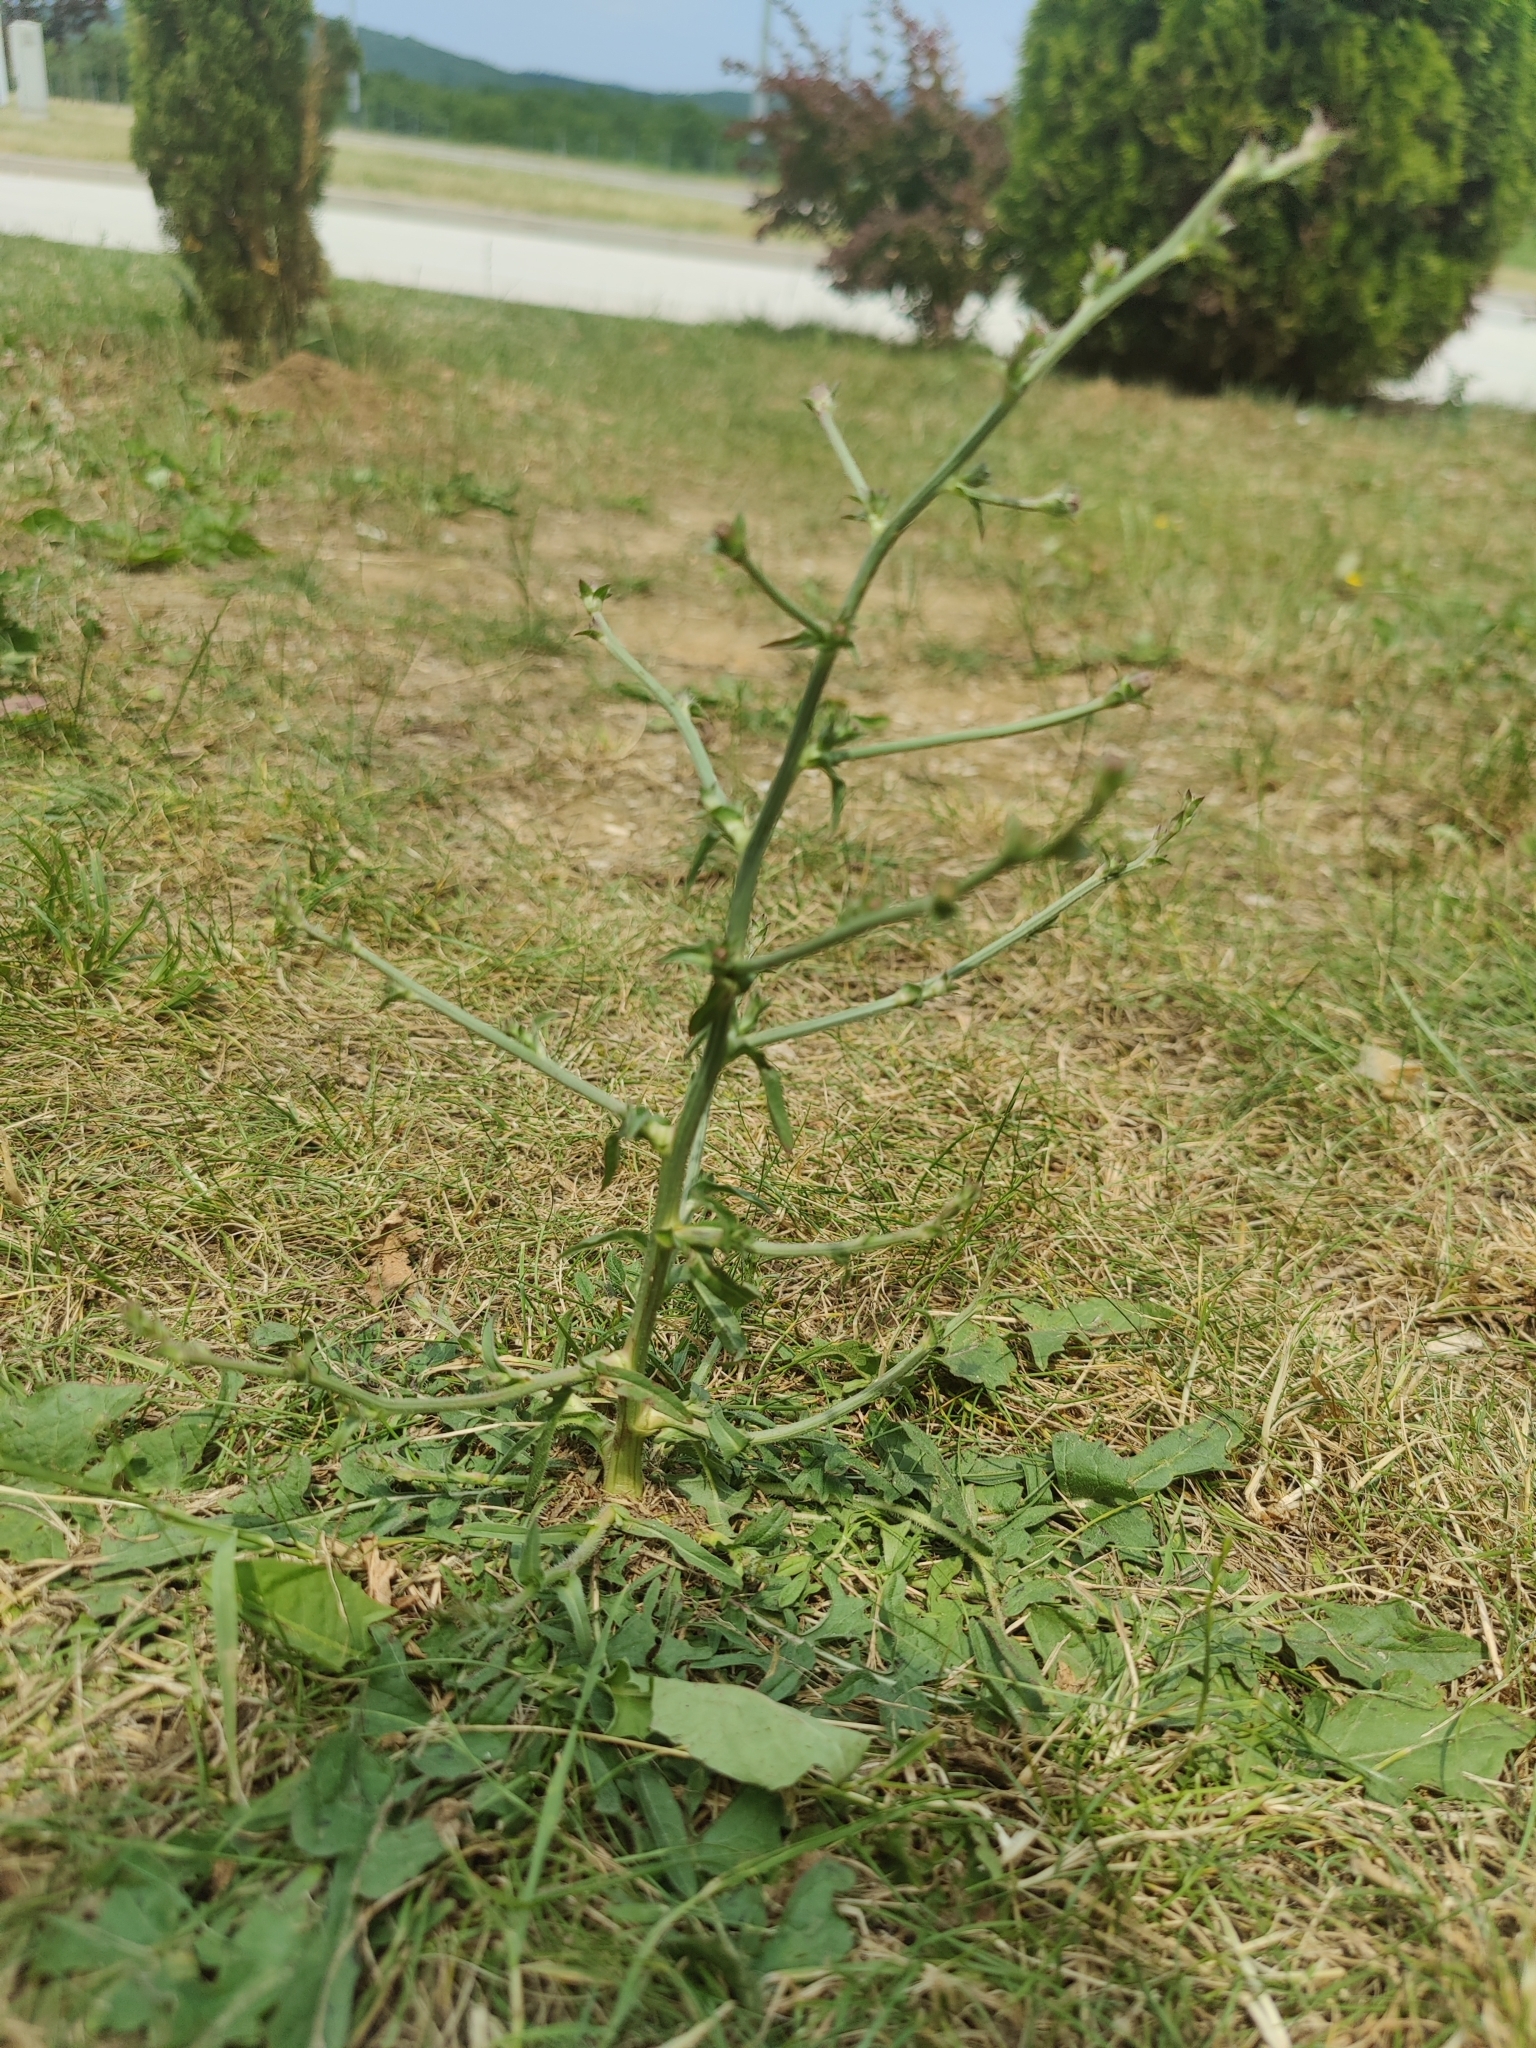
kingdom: Plantae
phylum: Tracheophyta
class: Magnoliopsida
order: Asterales
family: Asteraceae
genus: Cichorium
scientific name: Cichorium intybus
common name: Chicory
